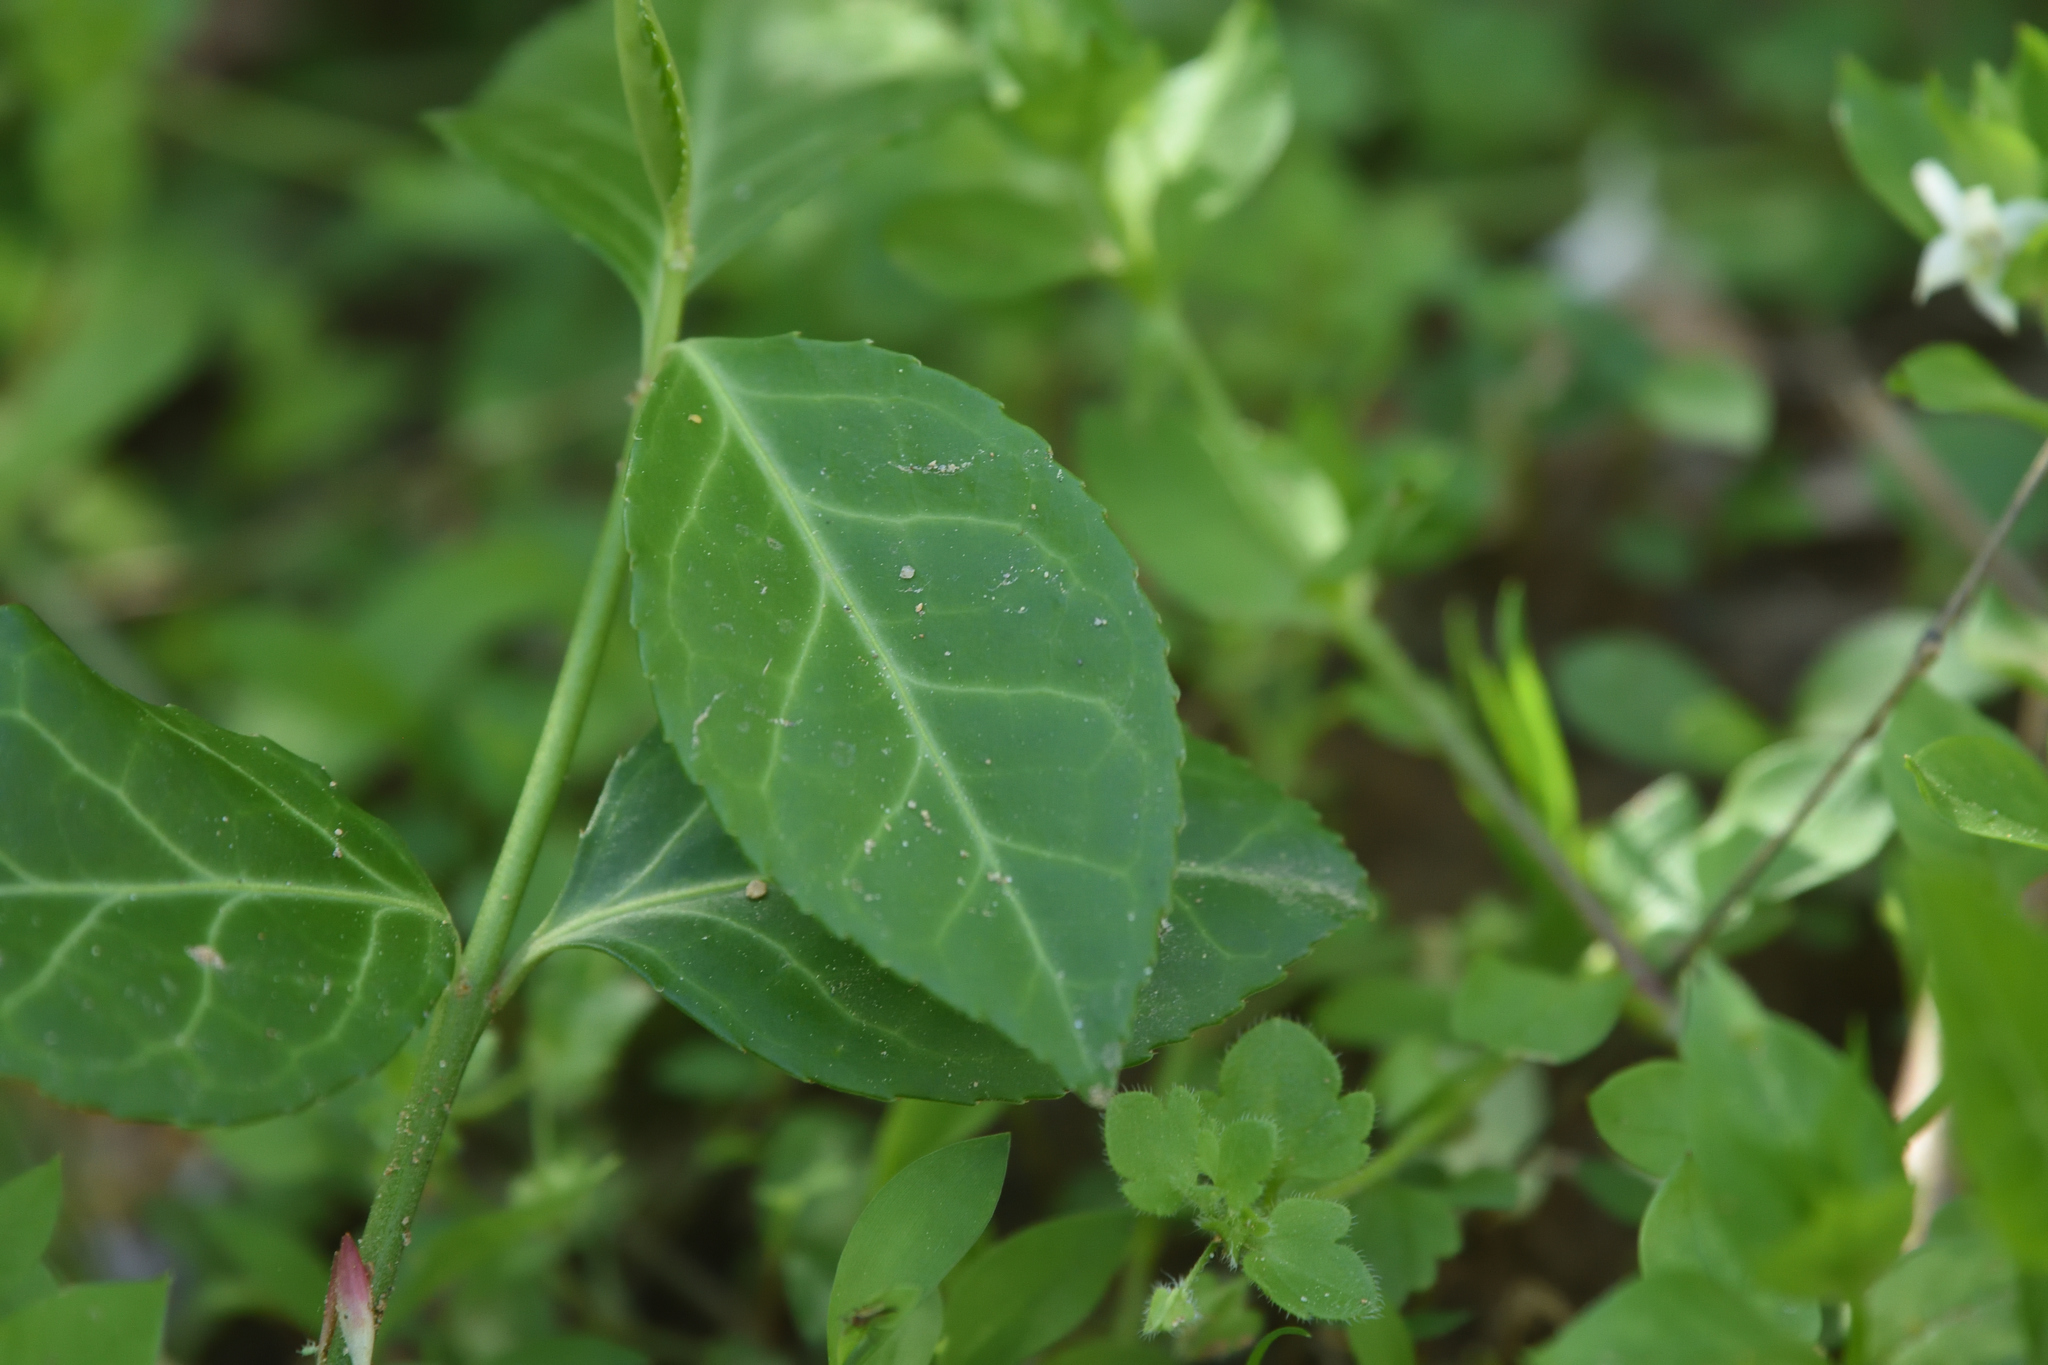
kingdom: Plantae
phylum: Tracheophyta
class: Magnoliopsida
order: Celastrales
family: Celastraceae
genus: Euonymus
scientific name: Euonymus fortunei
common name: Climbing euonymus
